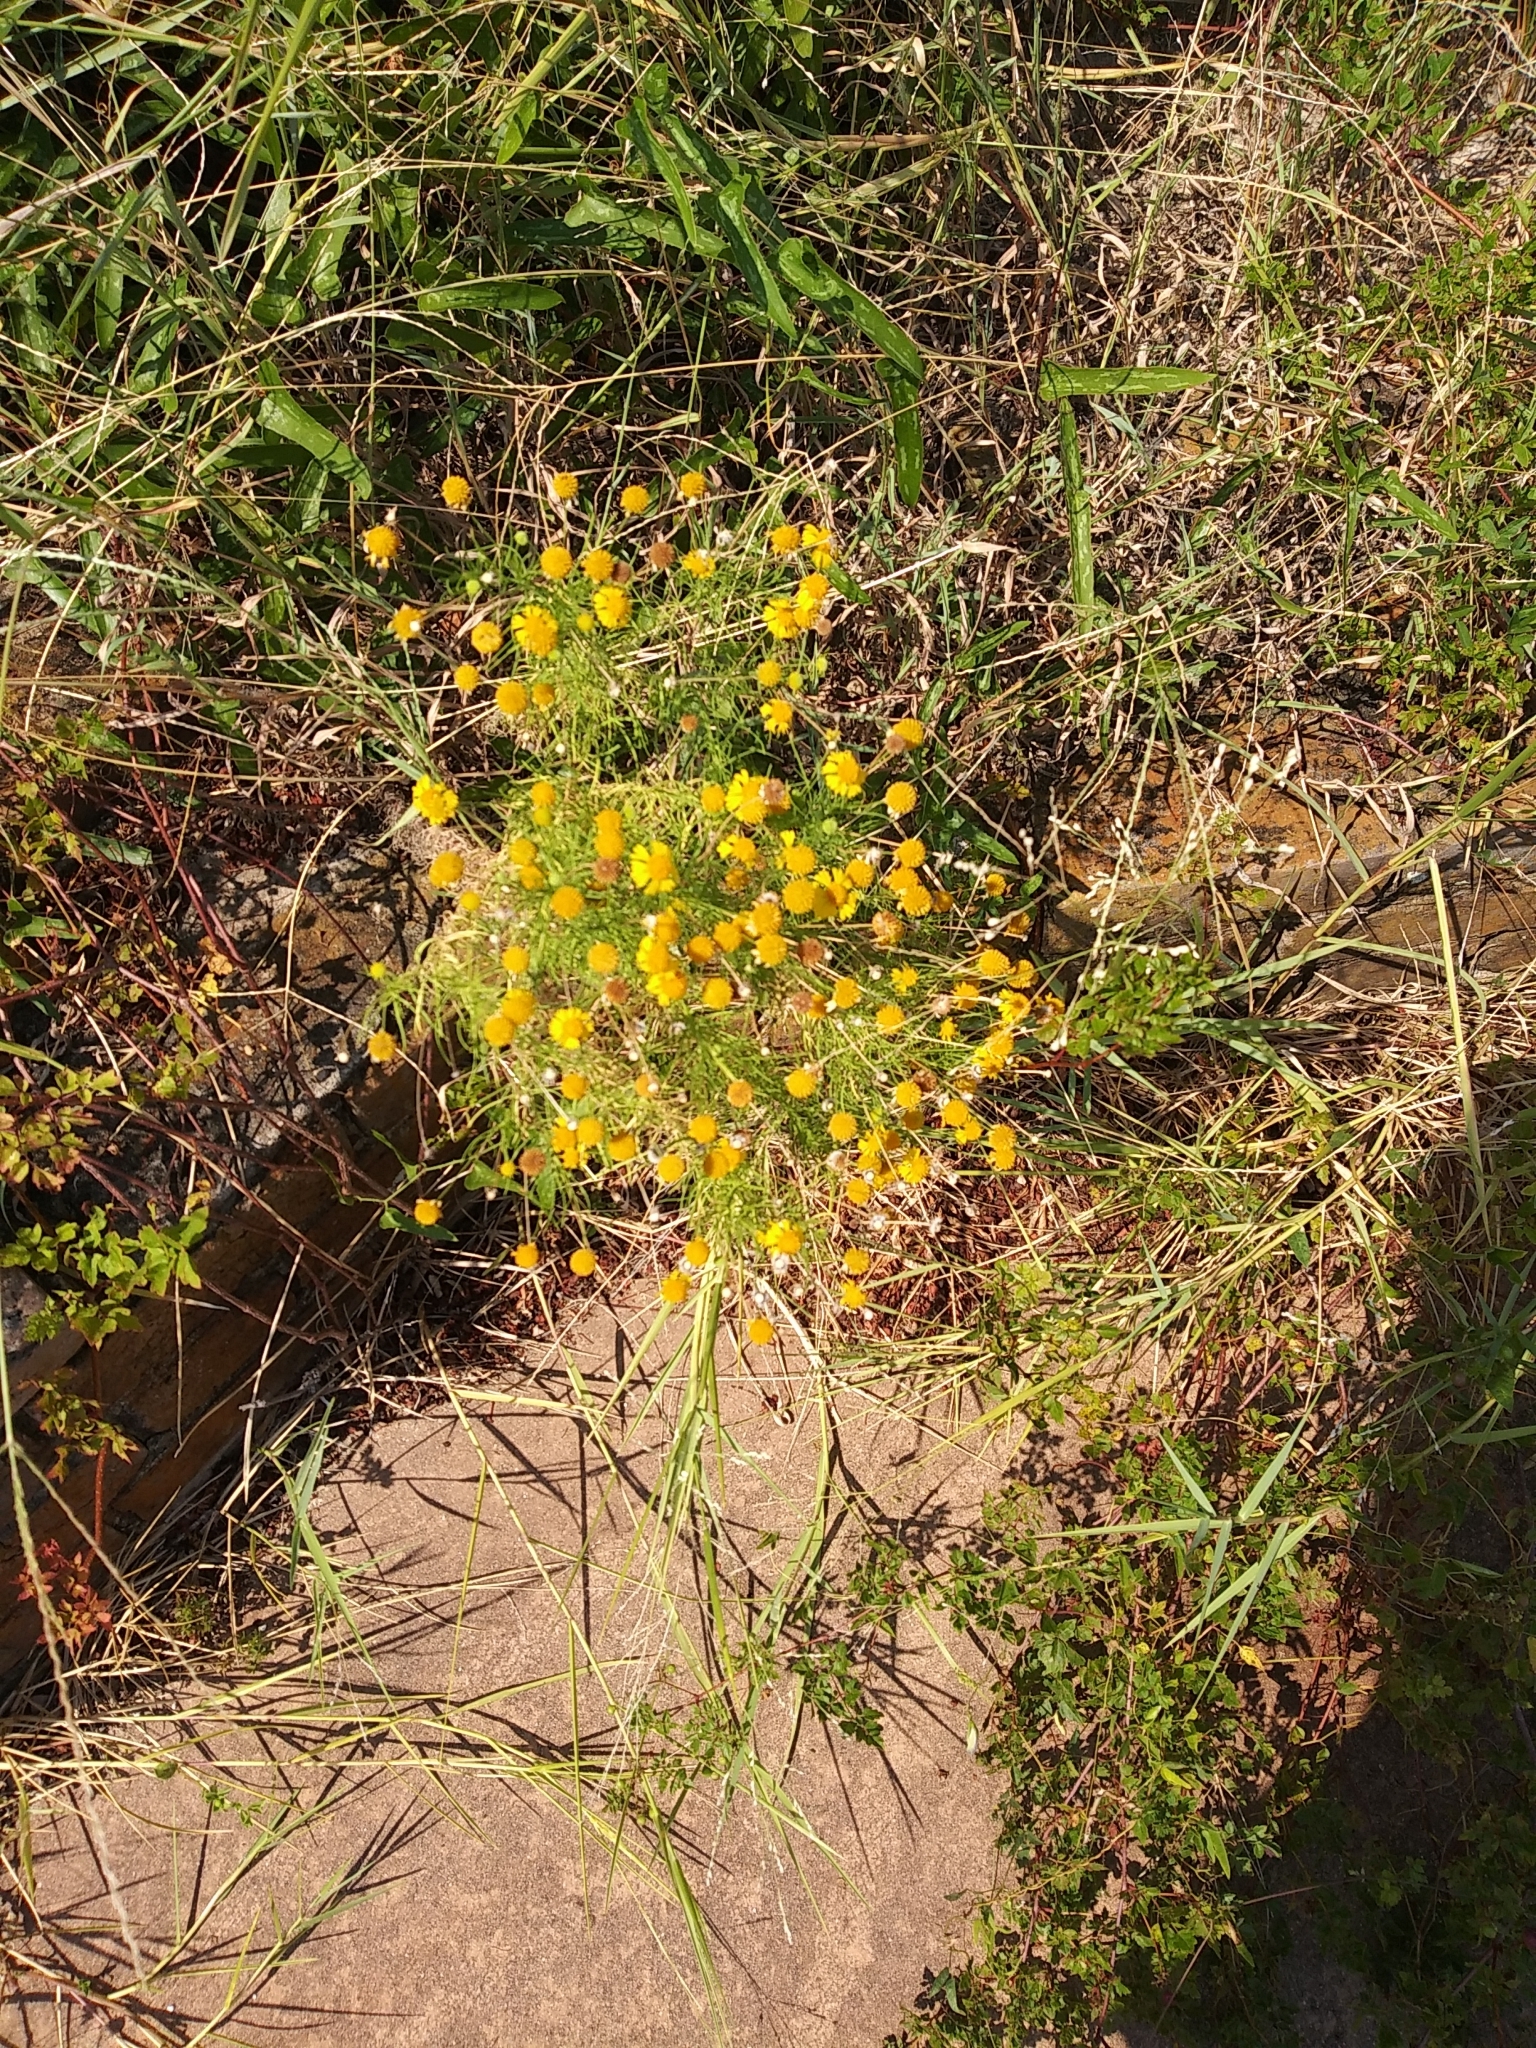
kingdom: Plantae
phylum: Tracheophyta
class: Magnoliopsida
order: Asterales
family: Asteraceae
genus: Helenium
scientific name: Helenium amarum
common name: Bitter sneezeweed
